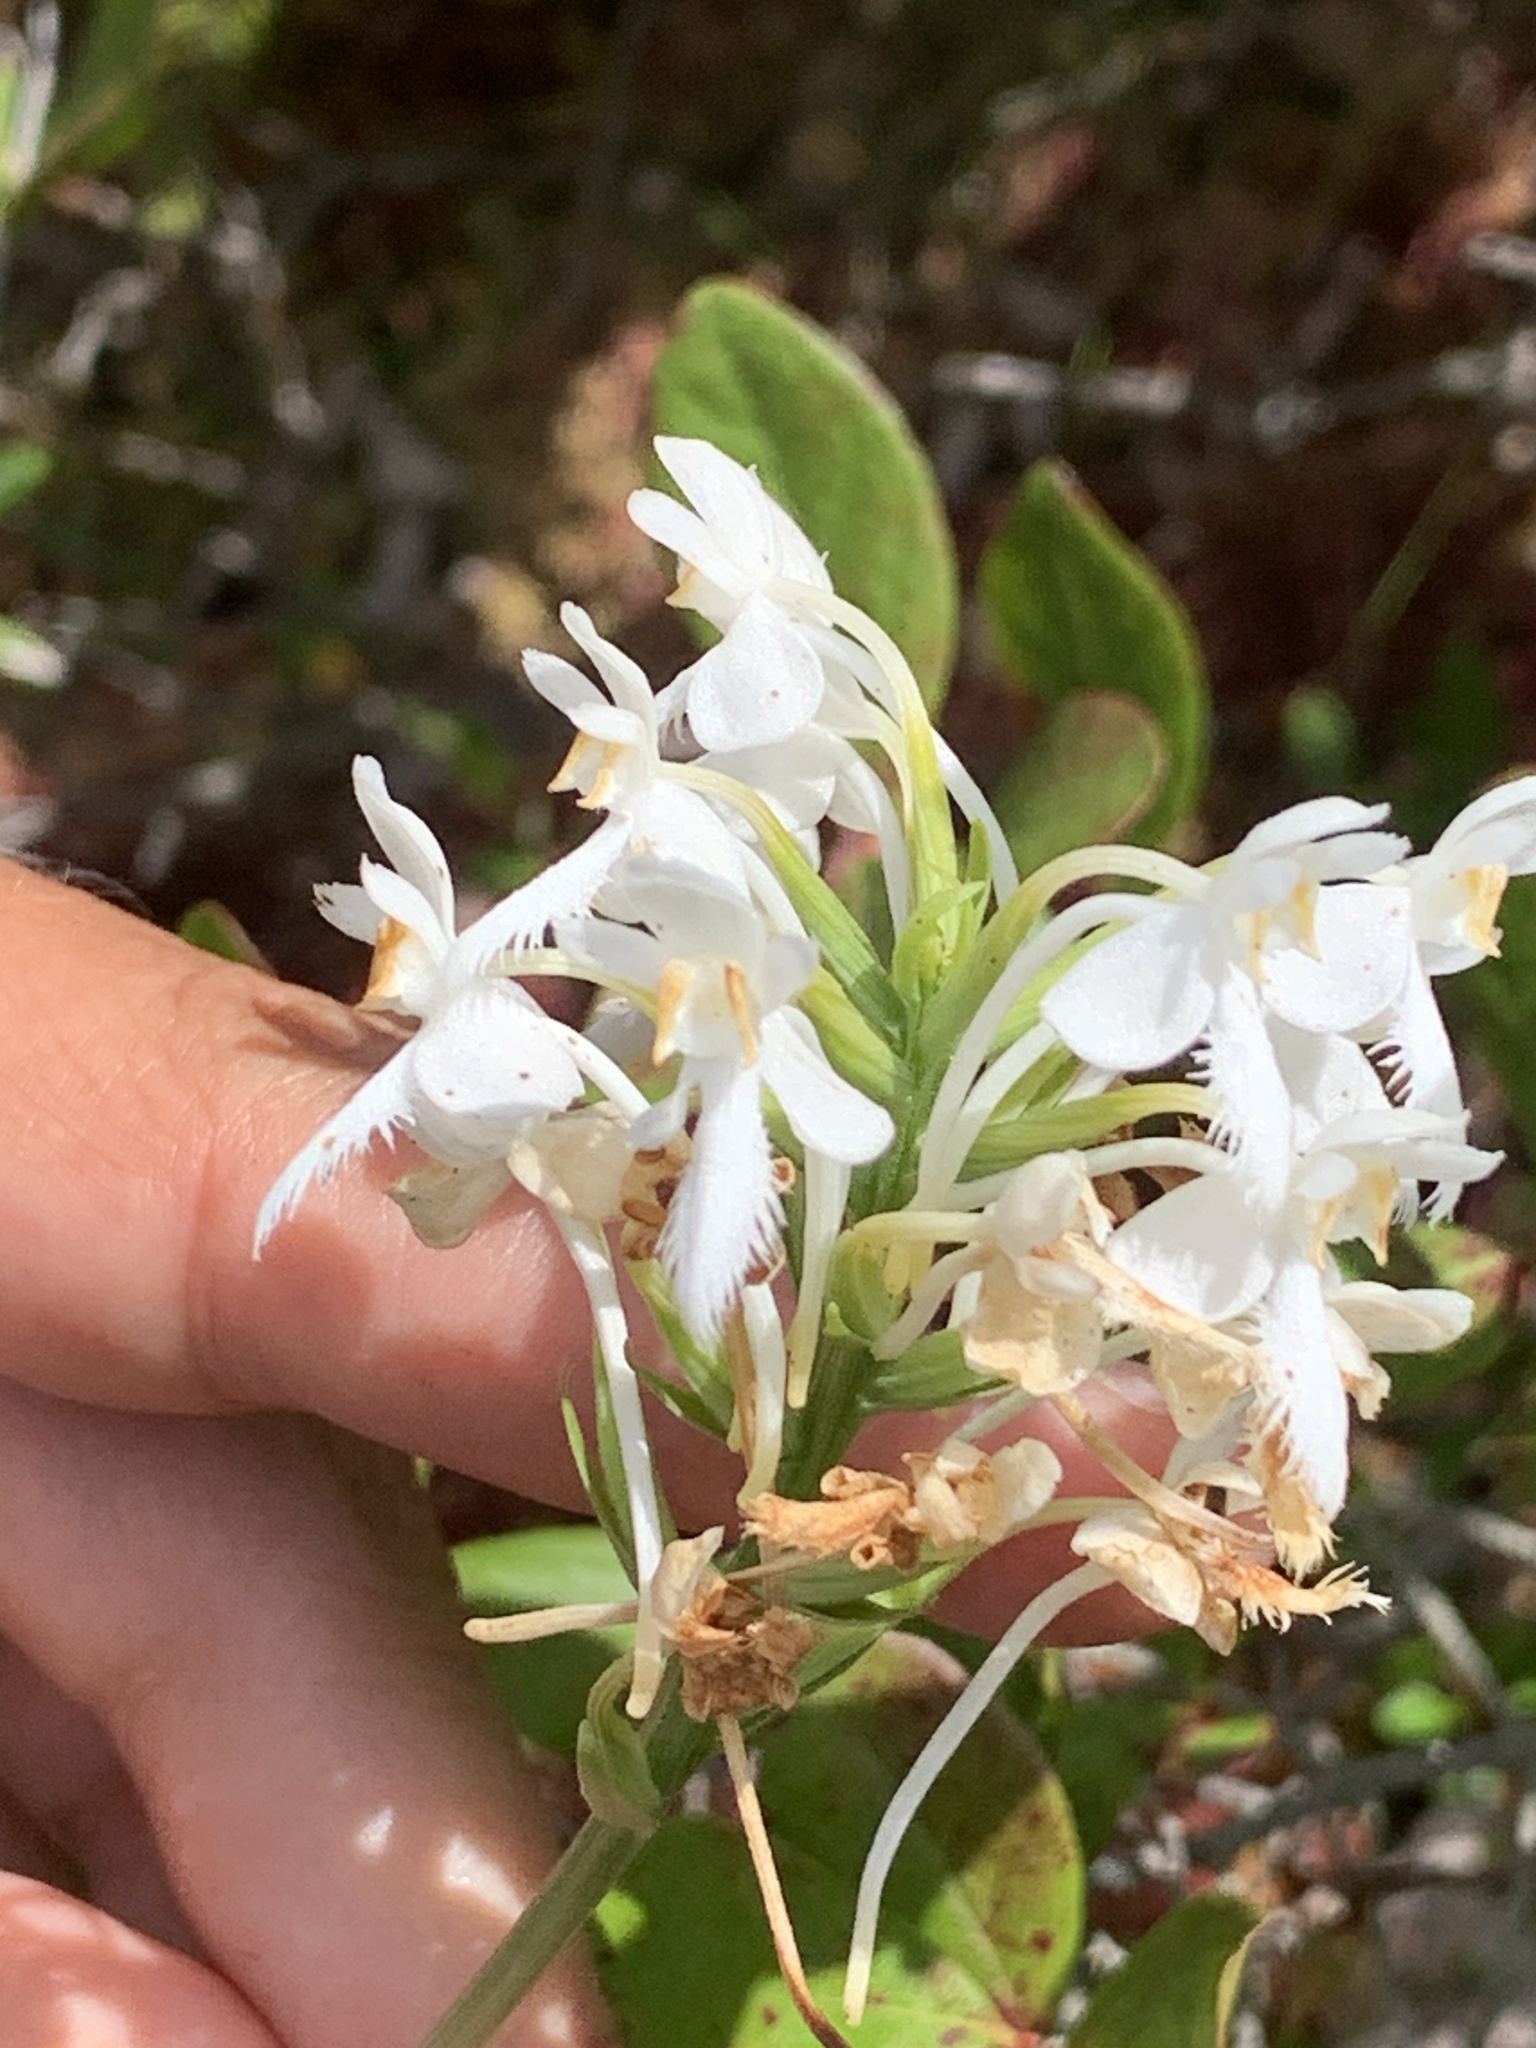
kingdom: Plantae
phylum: Tracheophyta
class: Liliopsida
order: Asparagales
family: Orchidaceae
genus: Platanthera
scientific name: Platanthera blephariglottis
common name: White fringed orchid
